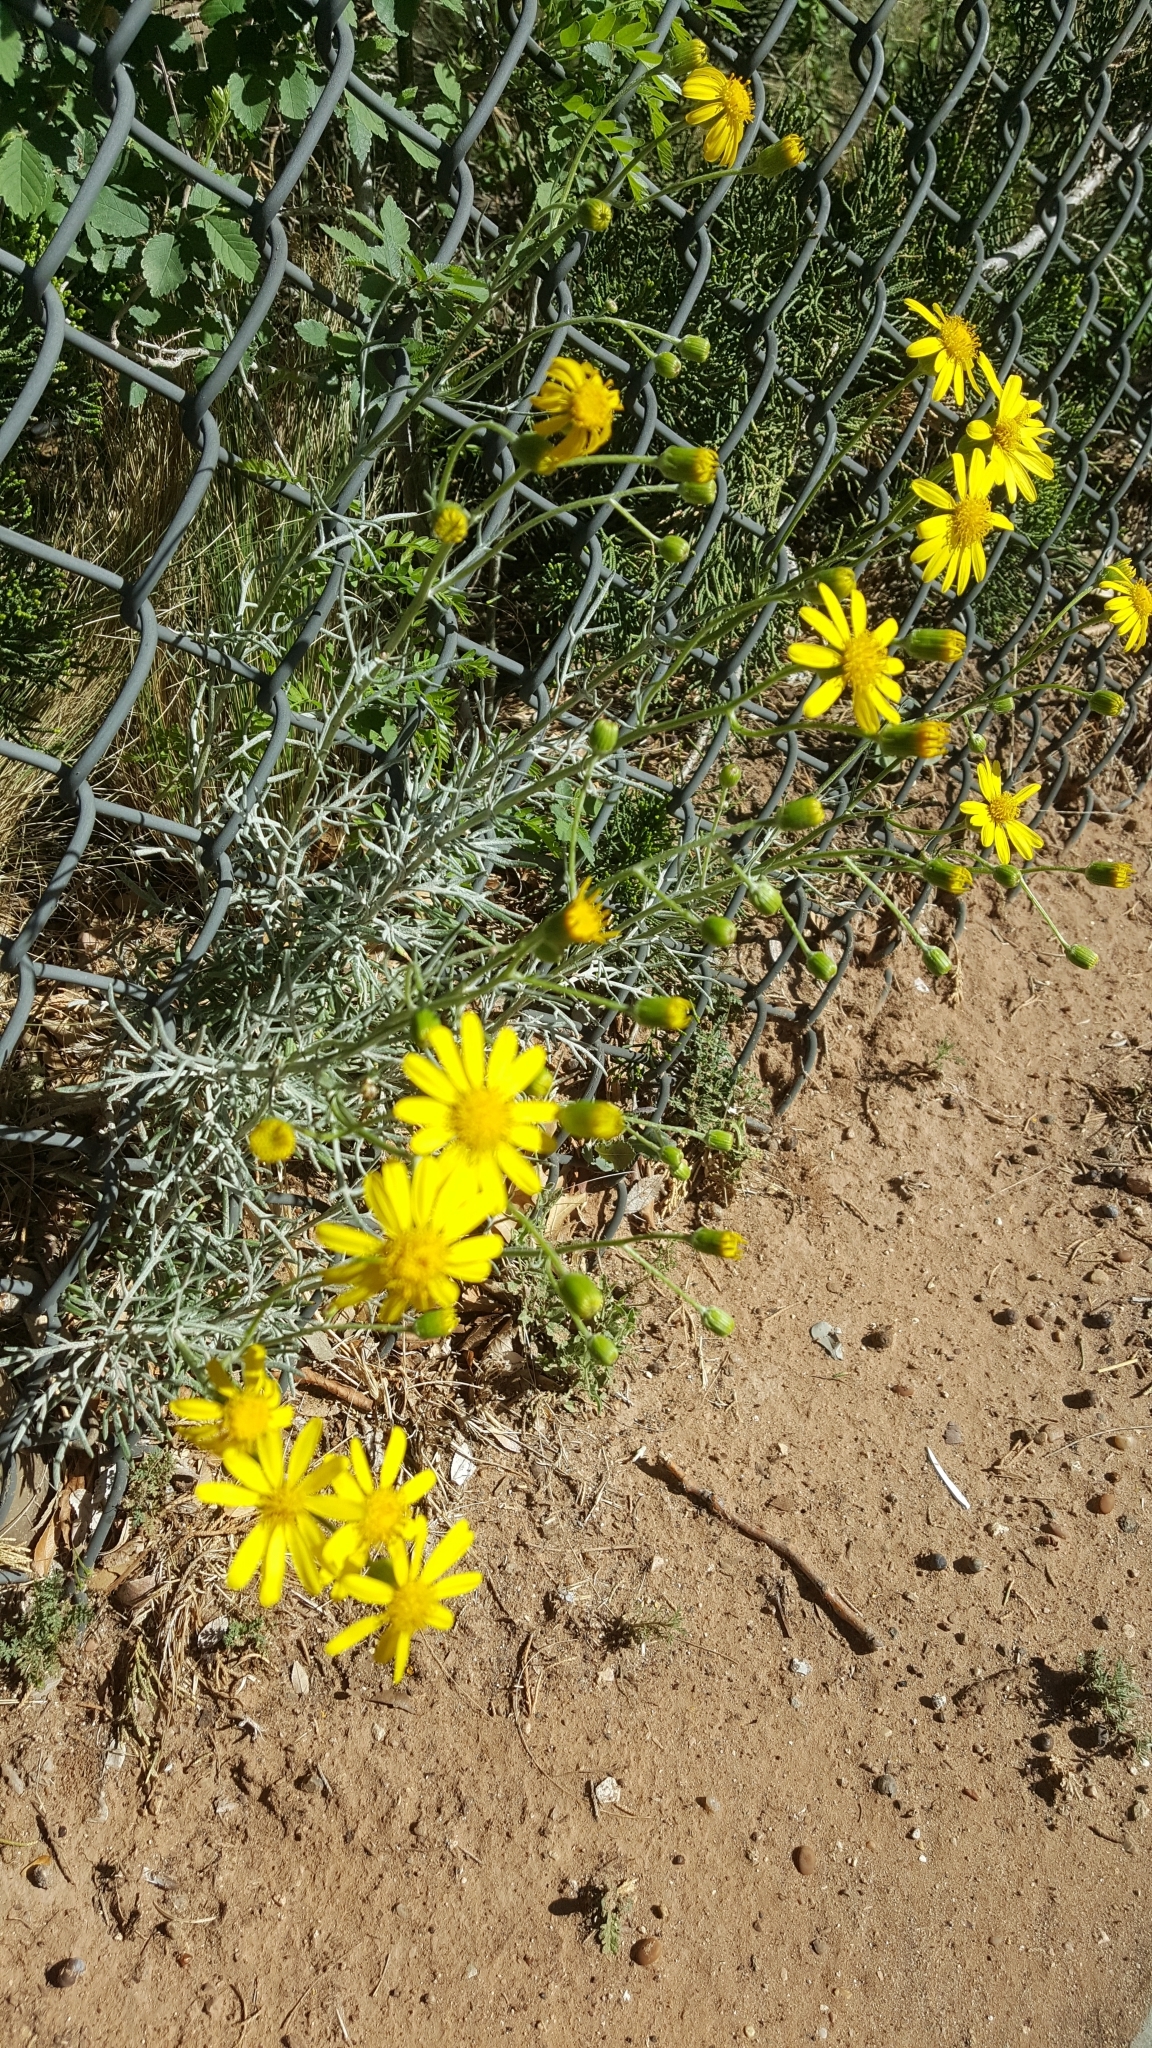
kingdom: Plantae
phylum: Tracheophyta
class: Magnoliopsida
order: Asterales
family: Asteraceae
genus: Senecio
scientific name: Senecio flaccidus
